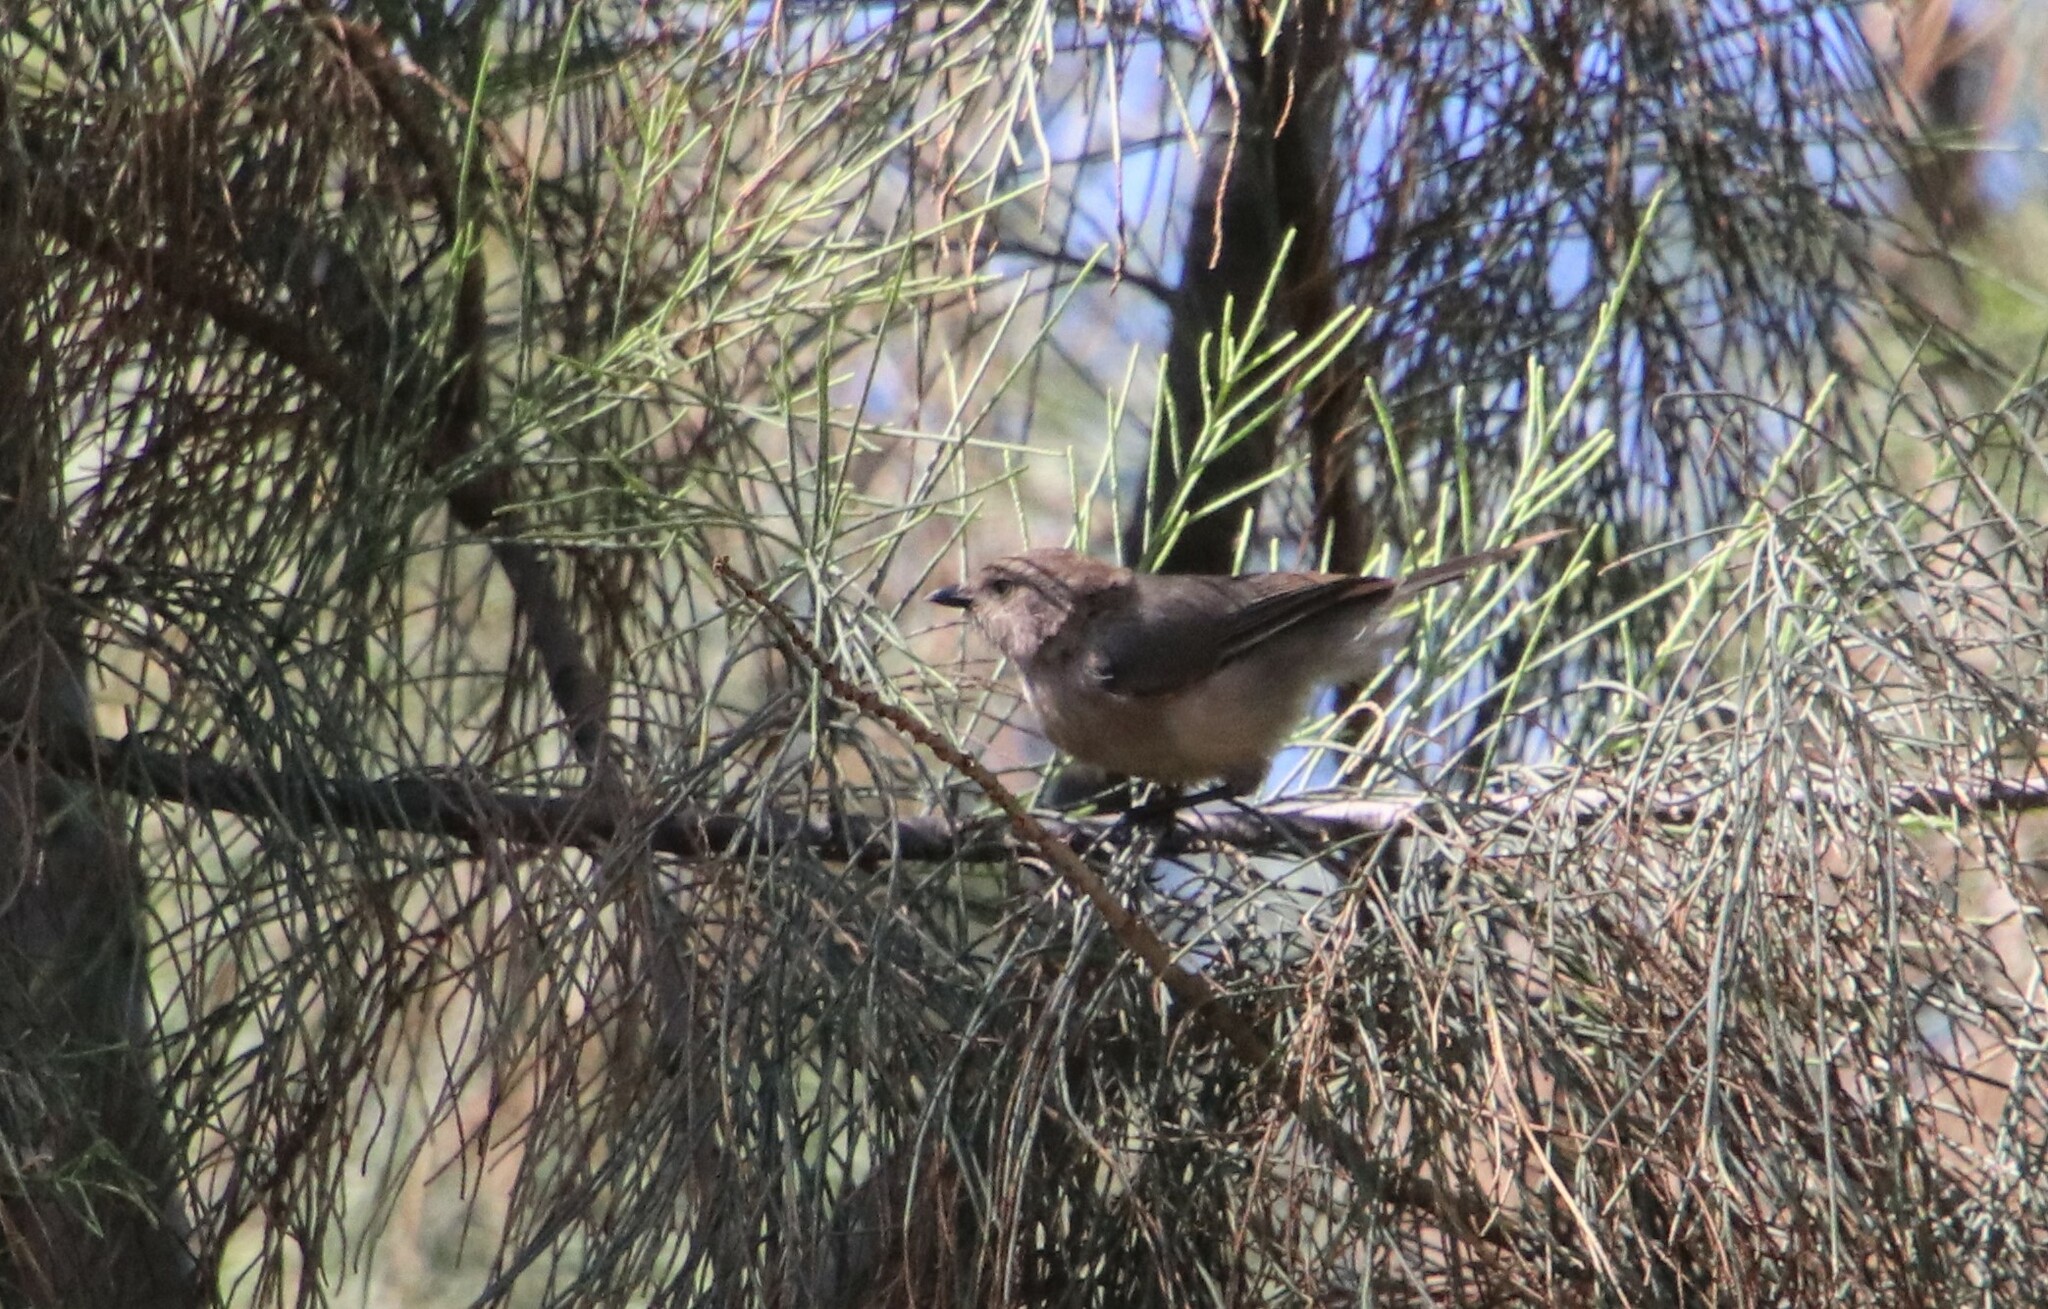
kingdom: Animalia
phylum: Chordata
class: Aves
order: Passeriformes
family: Aegithalidae
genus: Psaltriparus
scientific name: Psaltriparus minimus
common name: American bushtit
